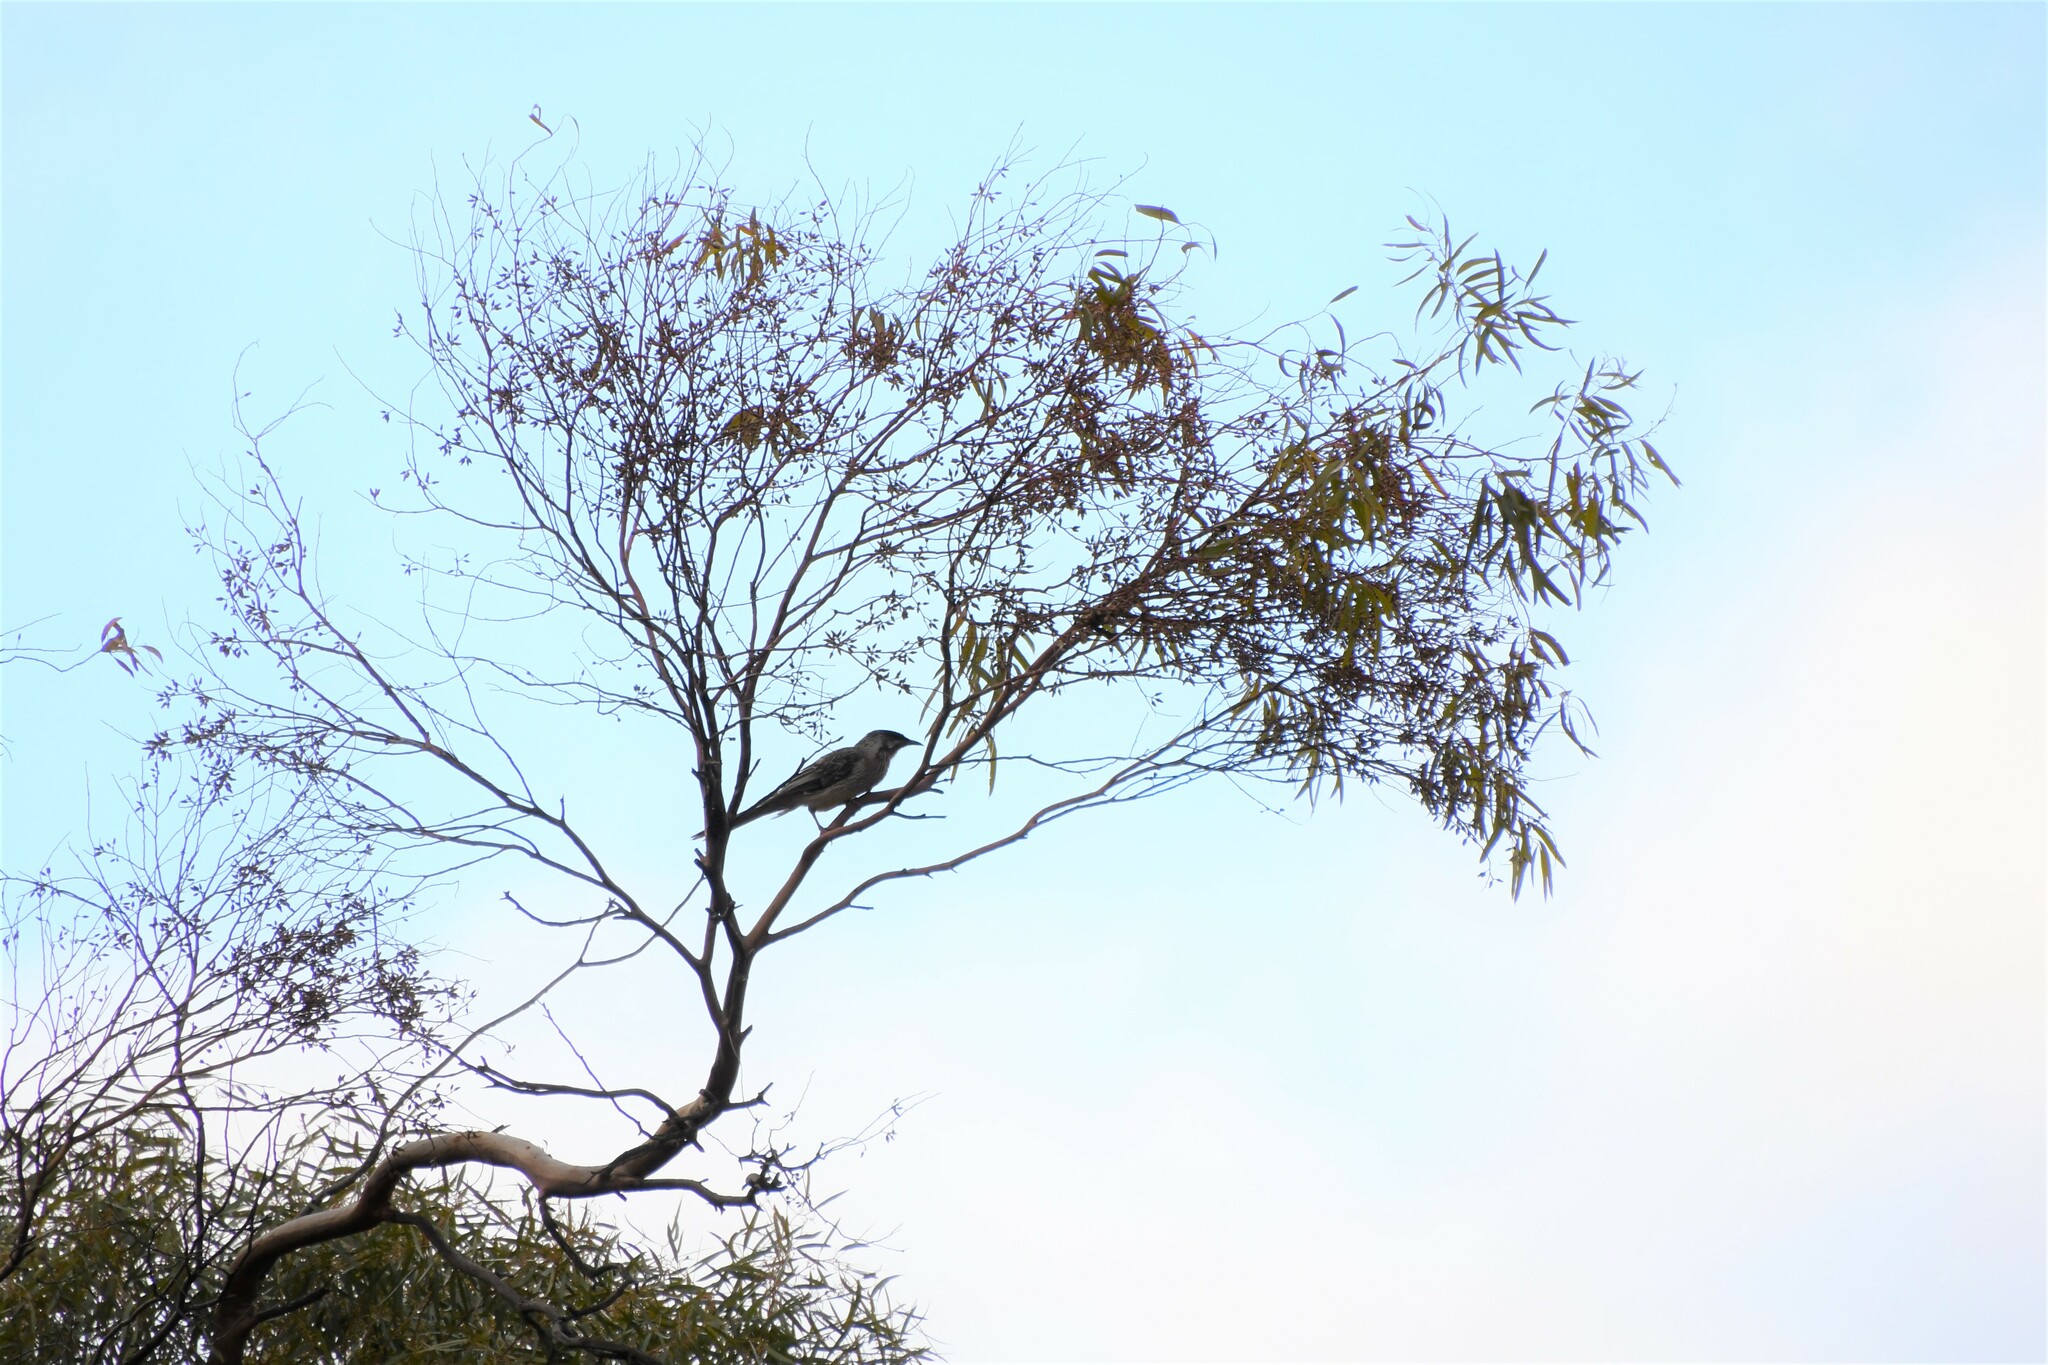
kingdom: Animalia
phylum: Chordata
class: Aves
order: Passeriformes
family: Meliphagidae
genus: Anthochaera
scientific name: Anthochaera carunculata
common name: Red wattlebird
